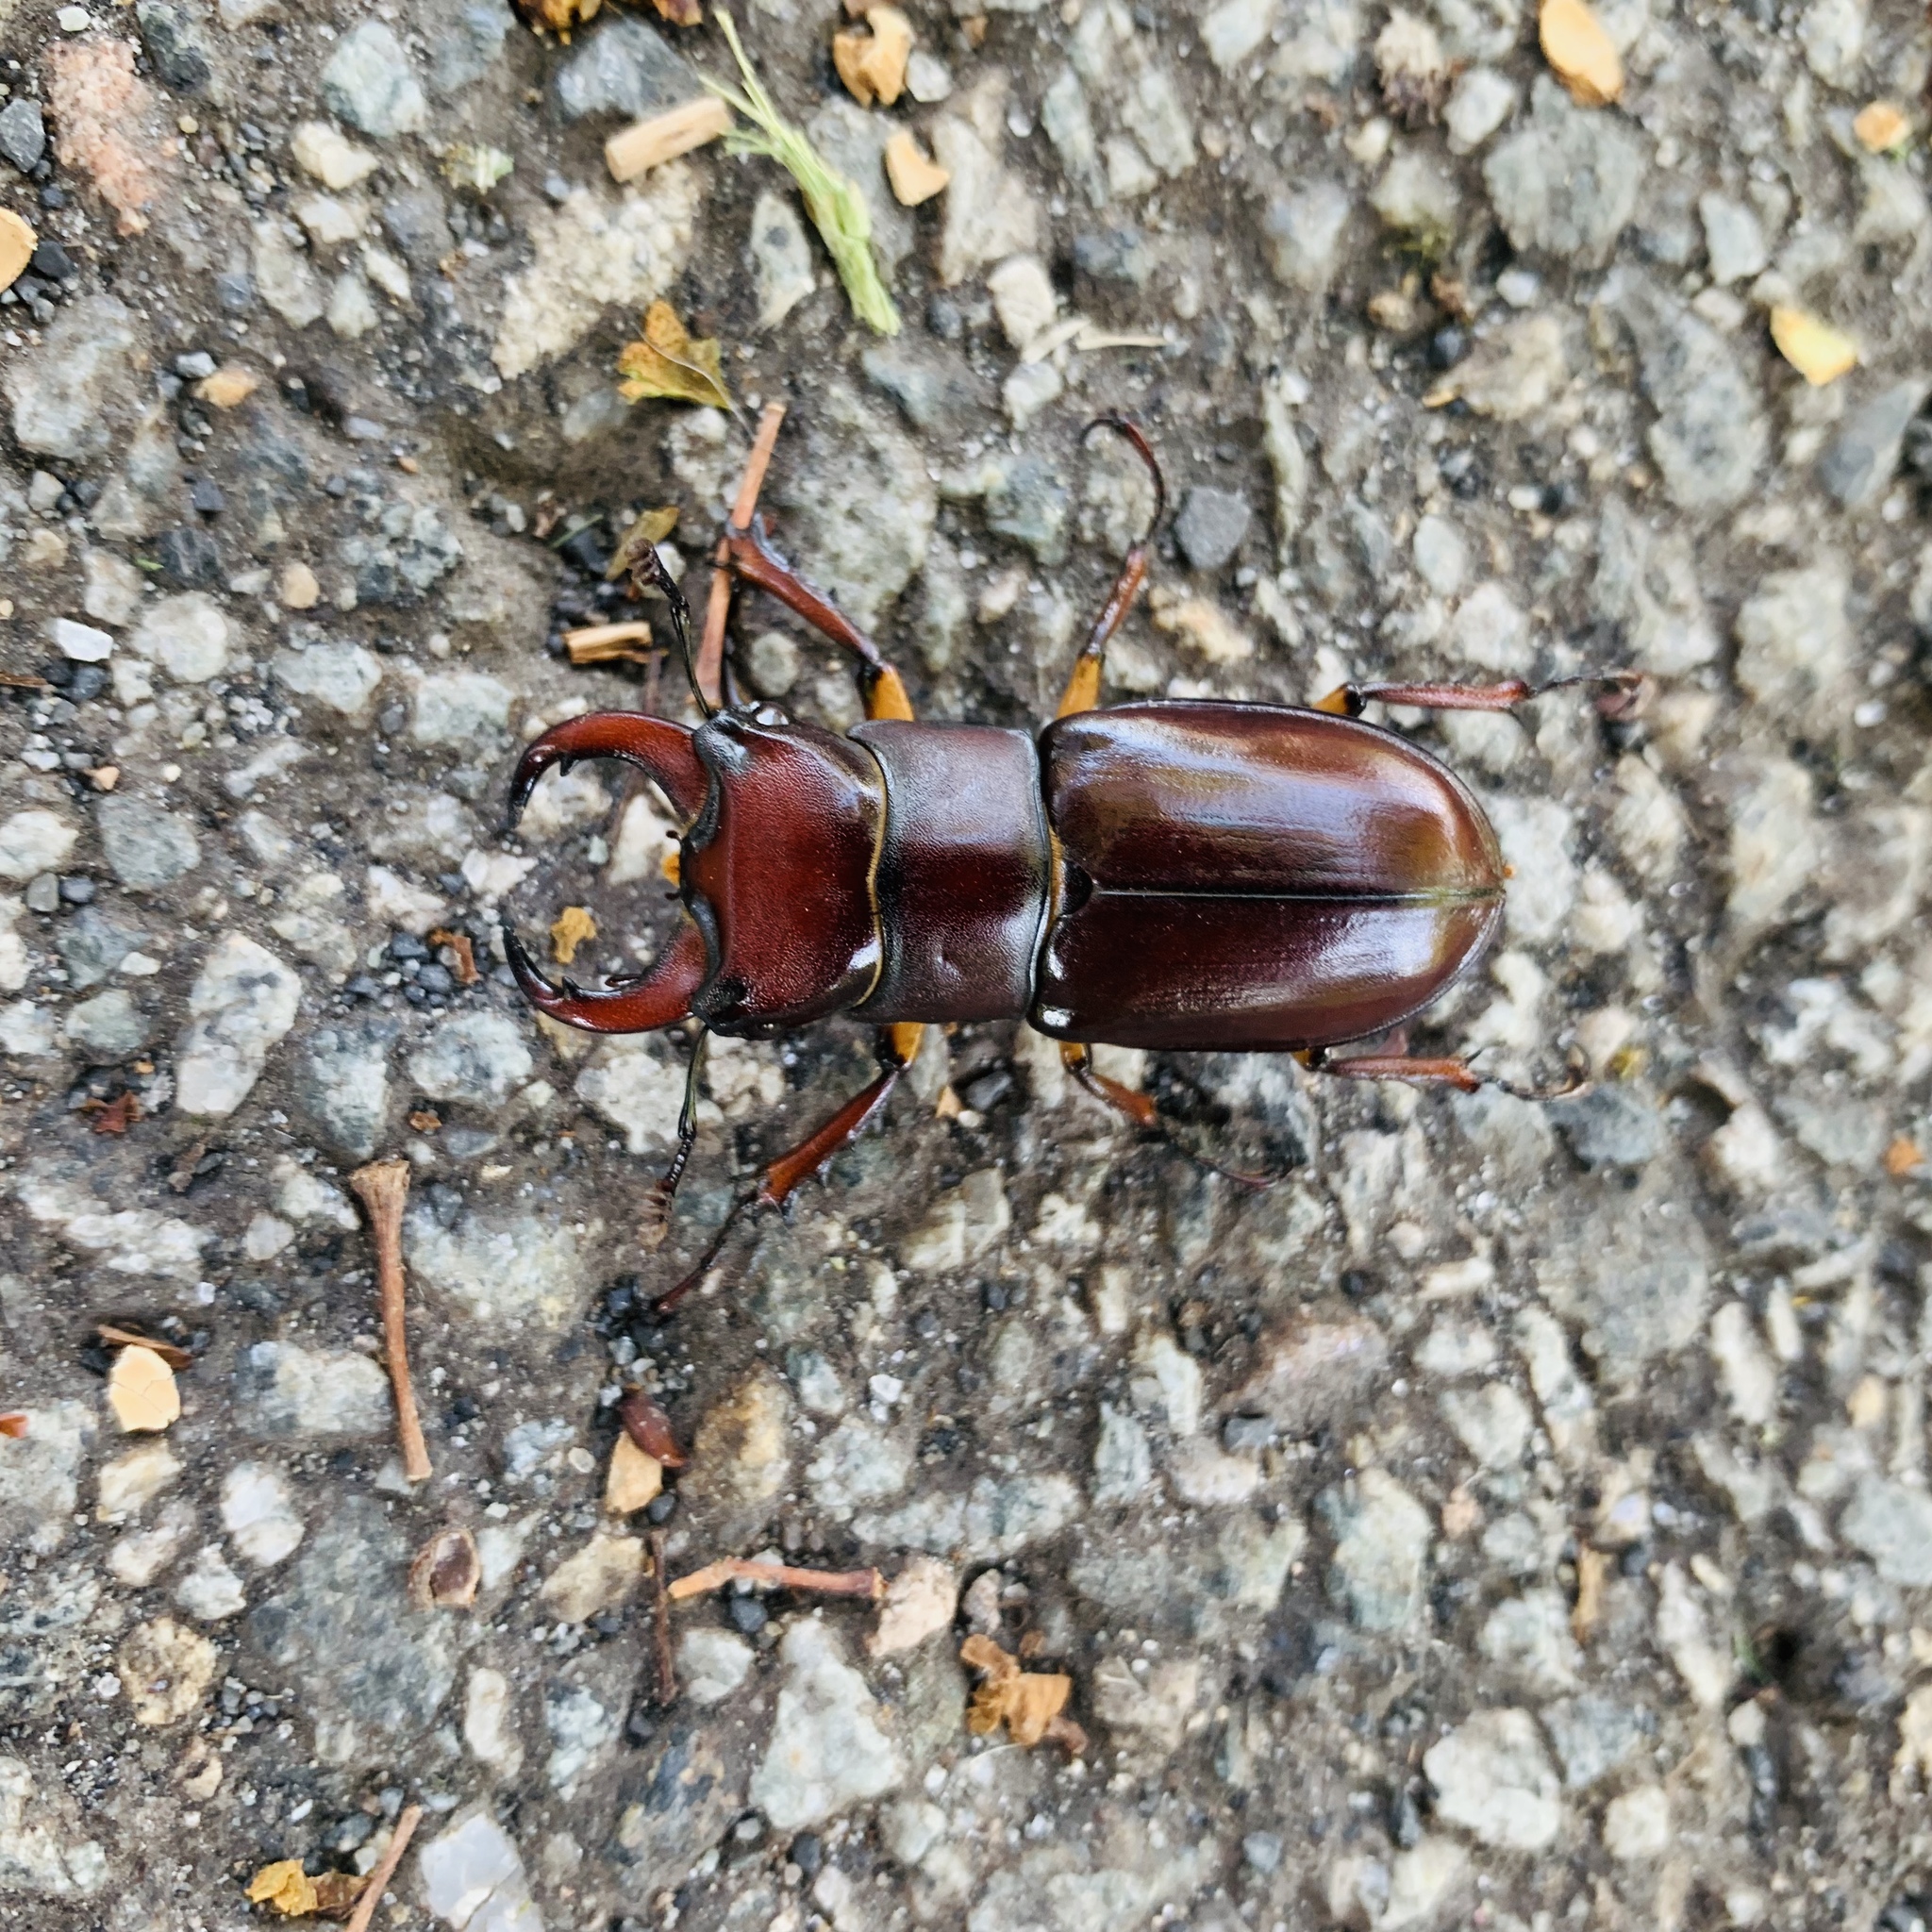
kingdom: Animalia
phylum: Arthropoda
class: Insecta
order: Coleoptera
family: Lucanidae
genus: Lucanus
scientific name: Lucanus capreolus
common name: Stag beetle
